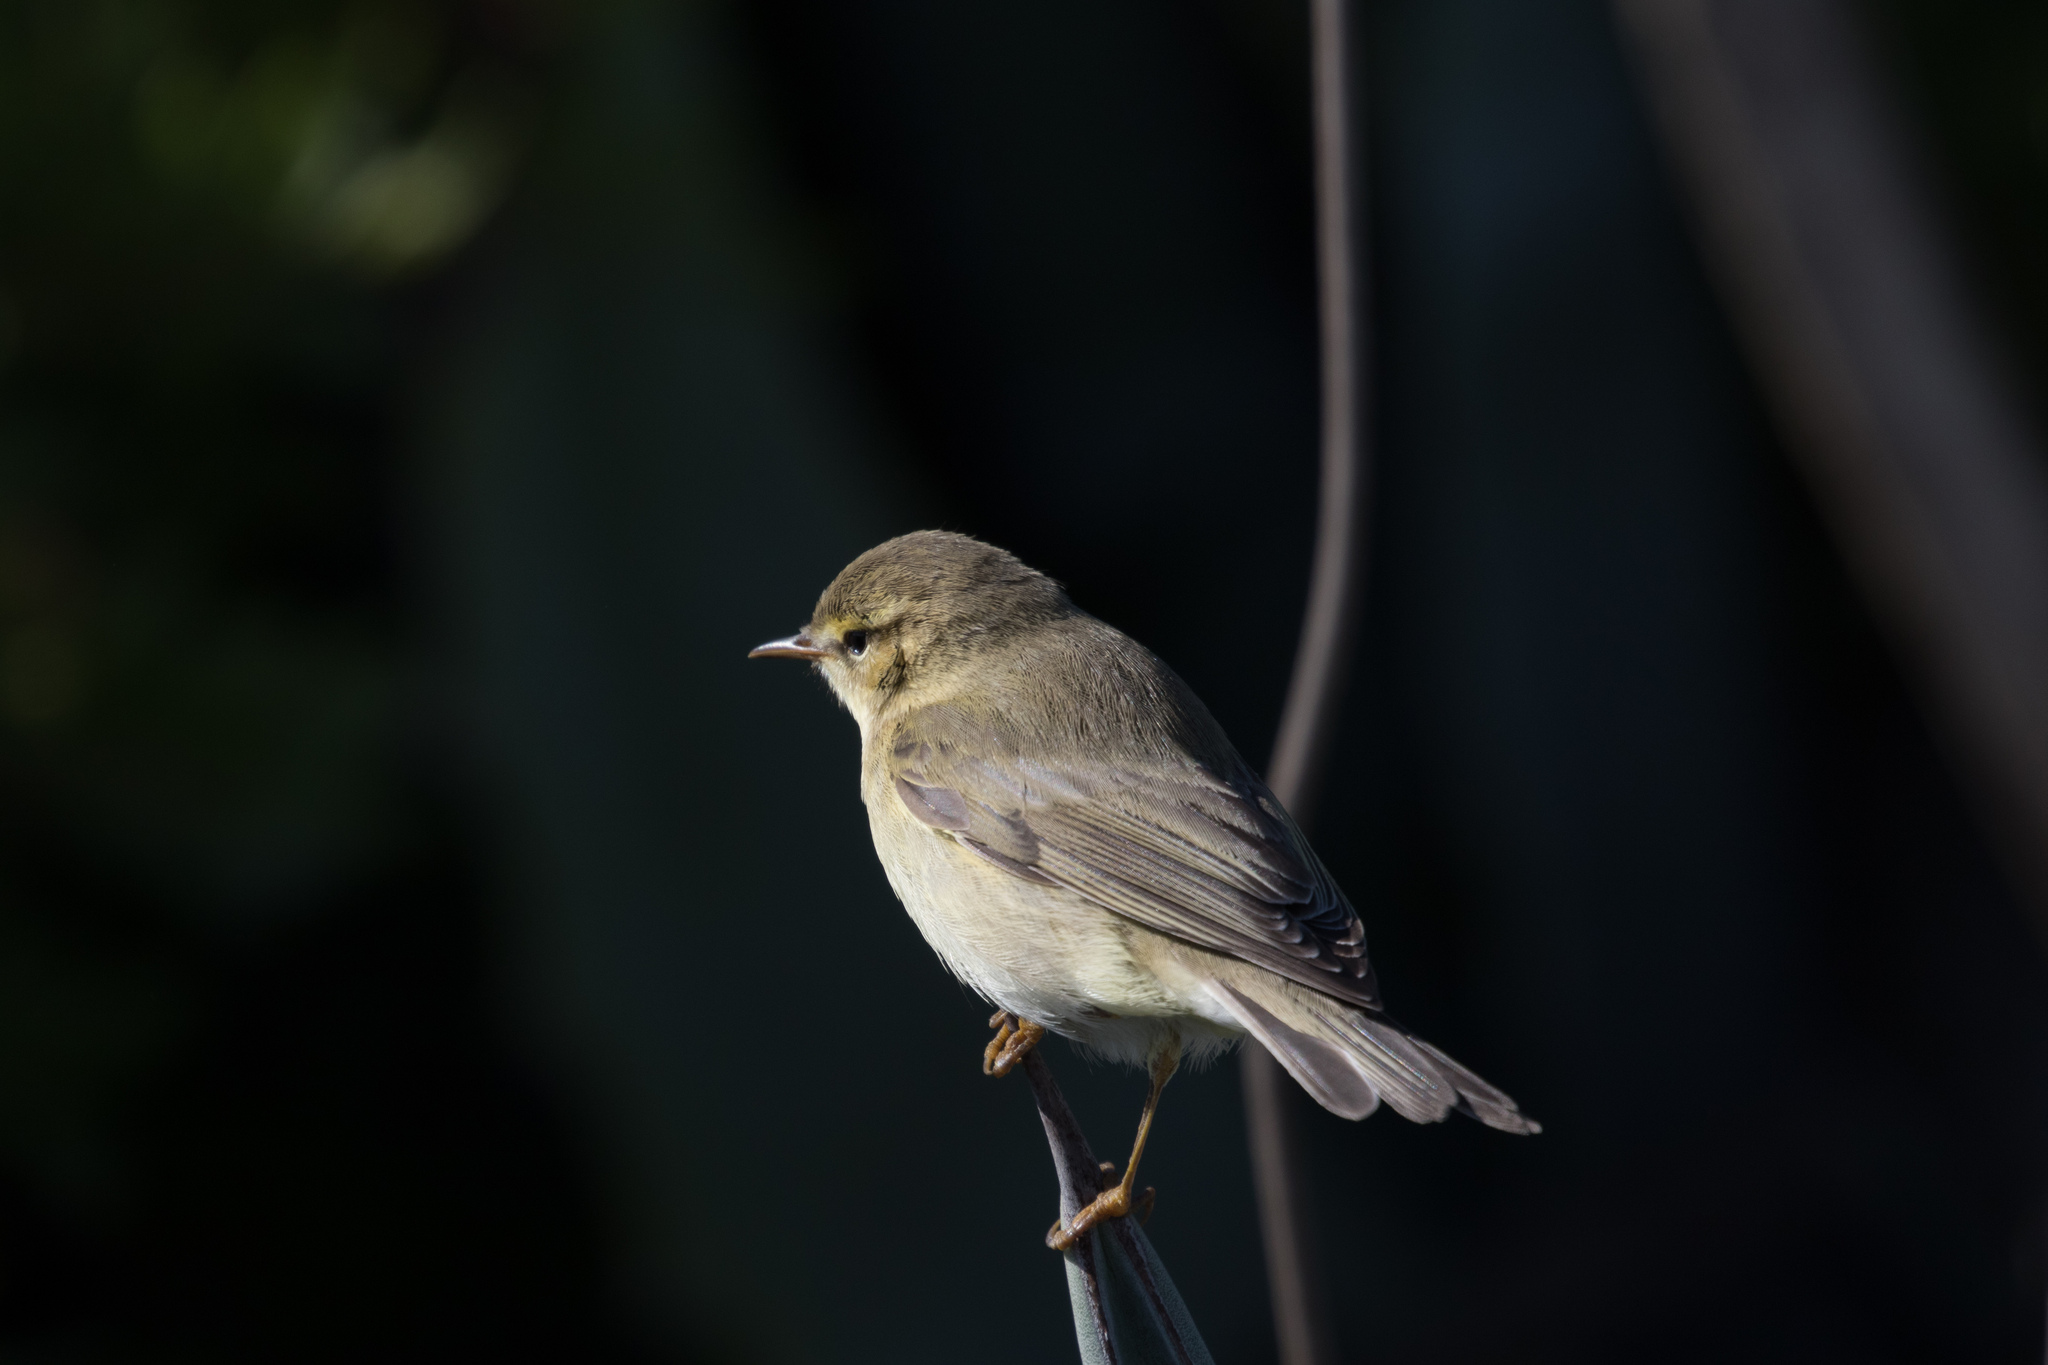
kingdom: Animalia
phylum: Chordata
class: Aves
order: Passeriformes
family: Phylloscopidae
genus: Phylloscopus
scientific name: Phylloscopus trochilus
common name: Willow warbler
